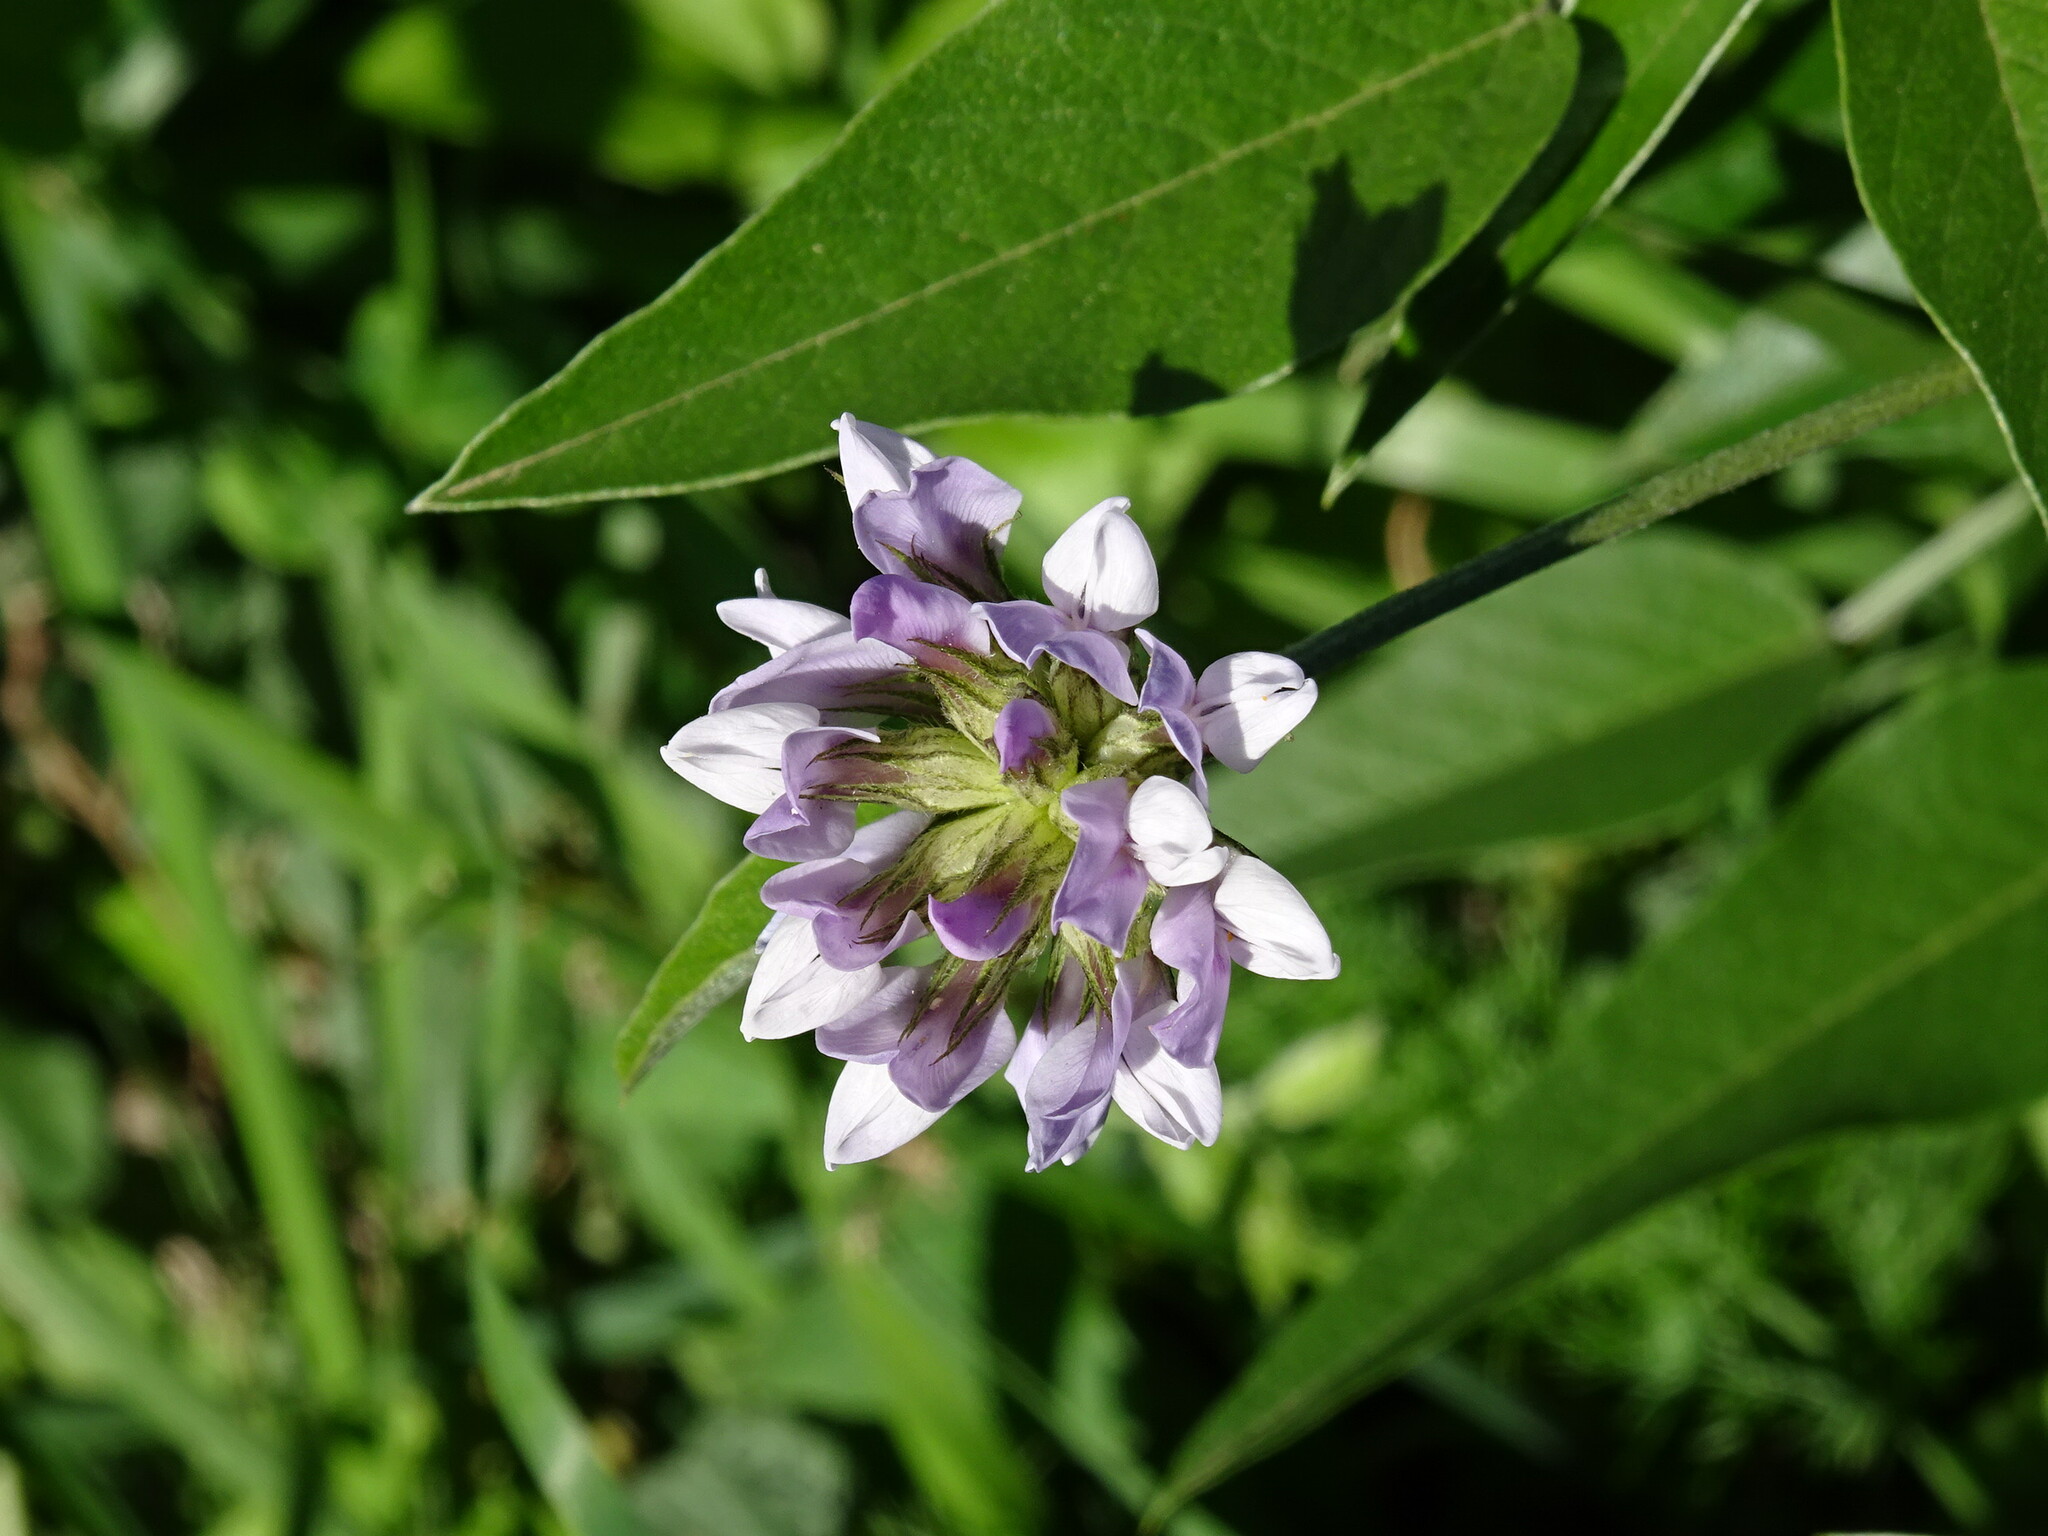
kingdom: Plantae
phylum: Tracheophyta
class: Magnoliopsida
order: Fabales
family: Fabaceae
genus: Bituminaria
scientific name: Bituminaria bituminosa
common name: Arabian pea
